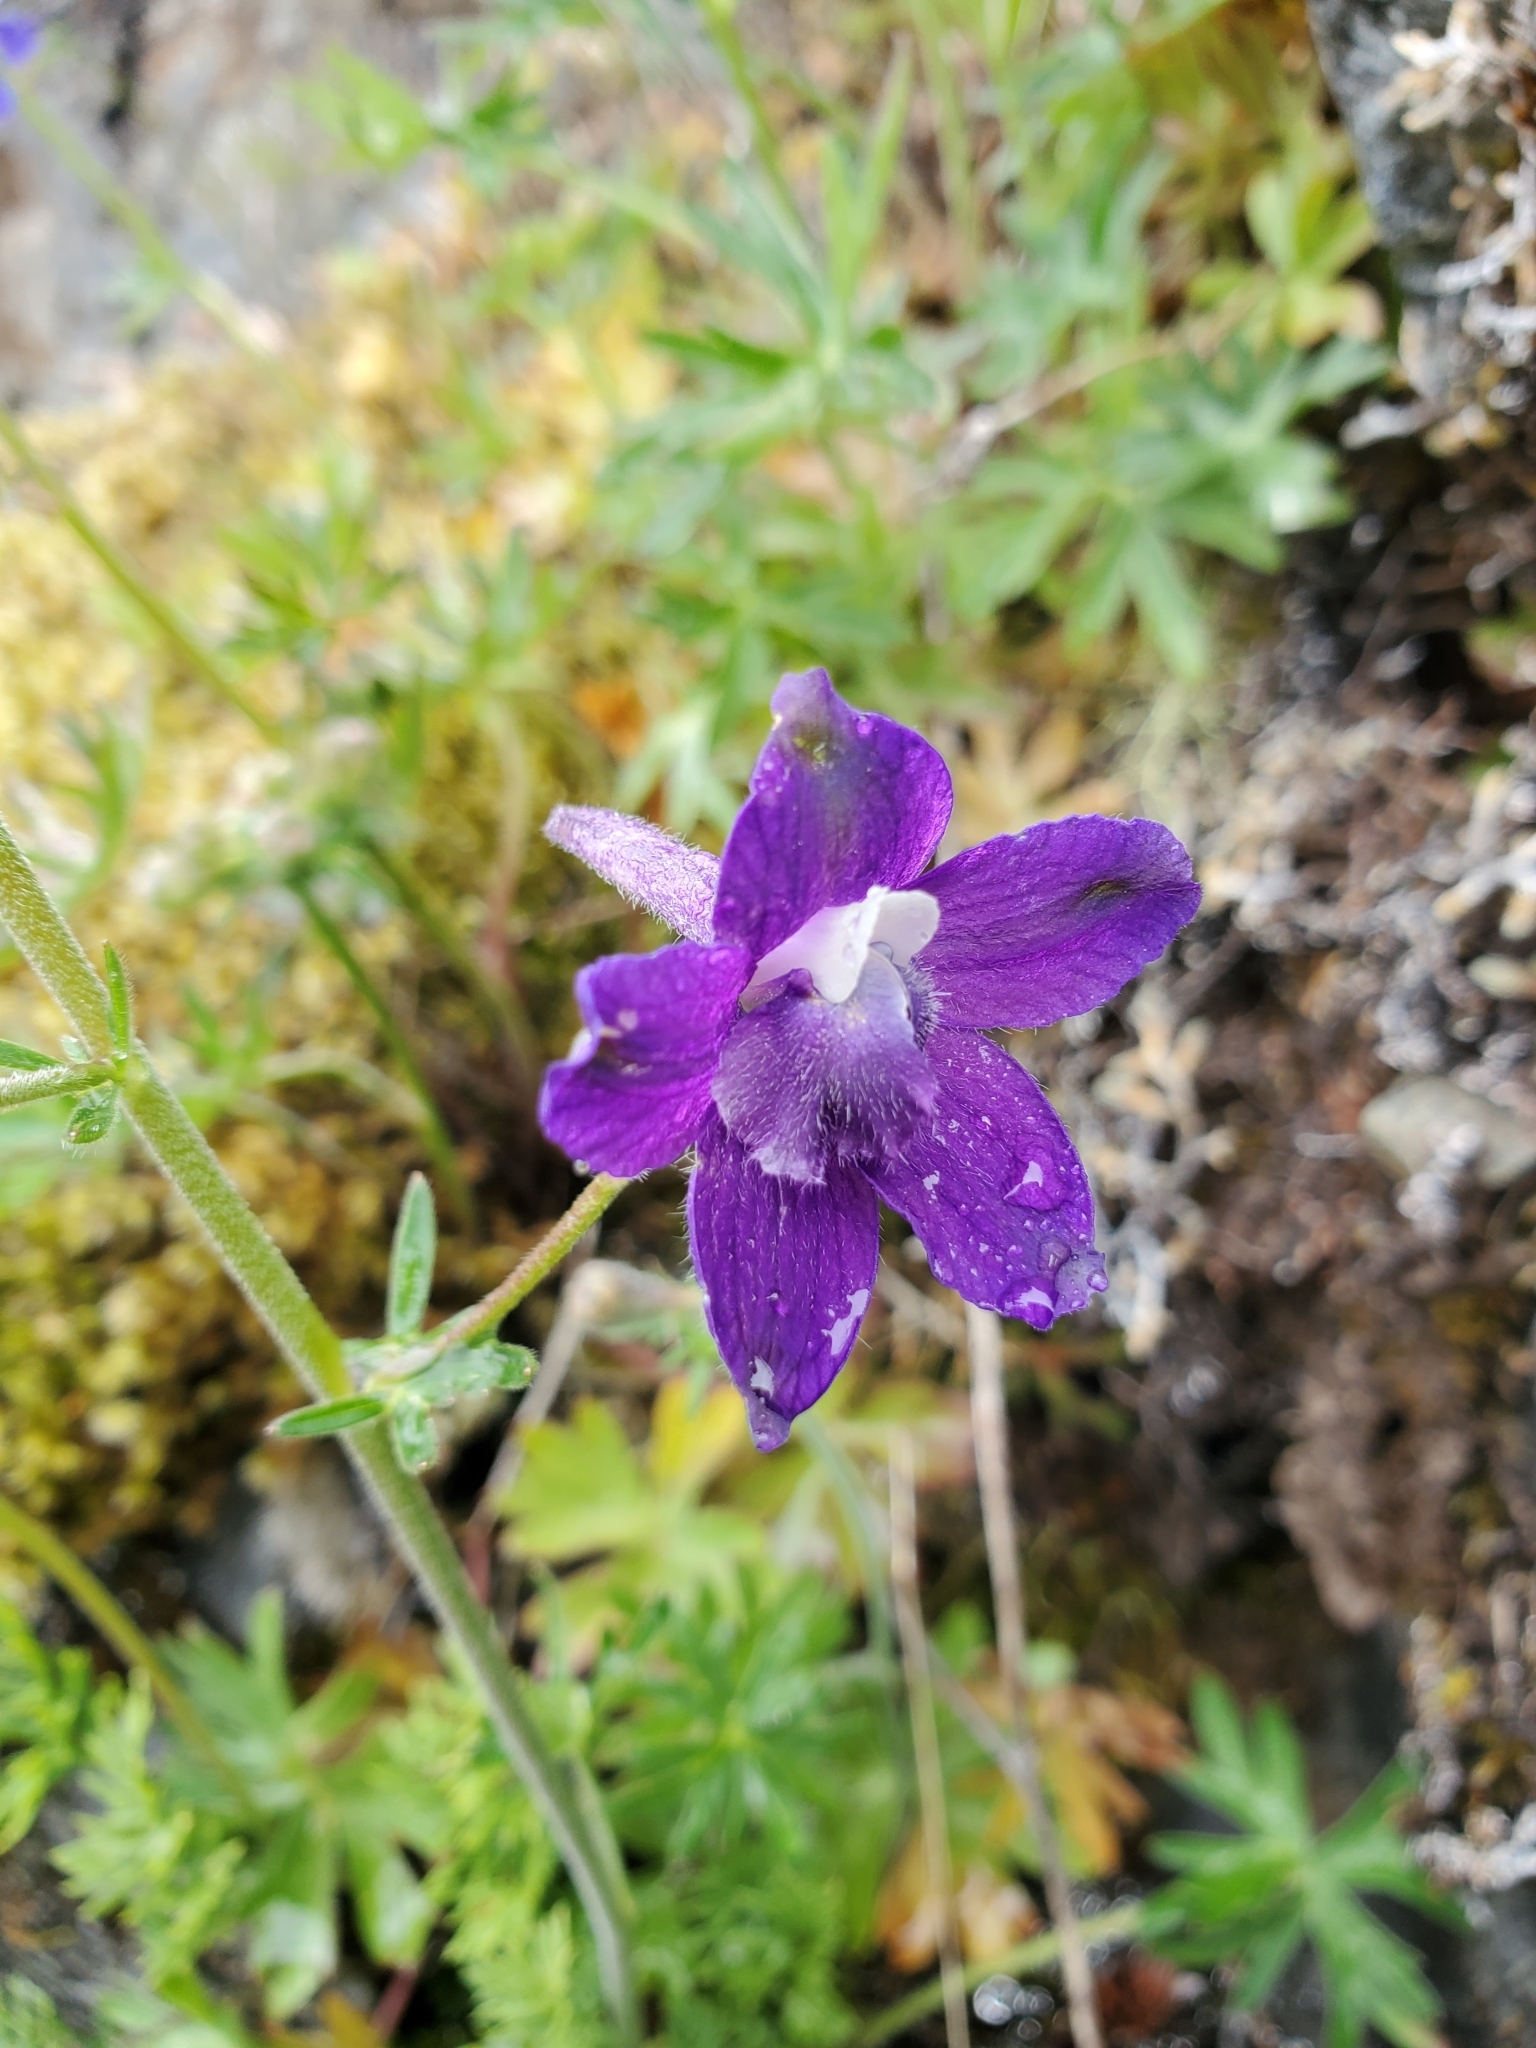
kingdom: Plantae
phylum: Tracheophyta
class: Magnoliopsida
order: Ranunculales
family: Ranunculaceae
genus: Delphinium
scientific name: Delphinium menziesii
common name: Menzies's larkspur
